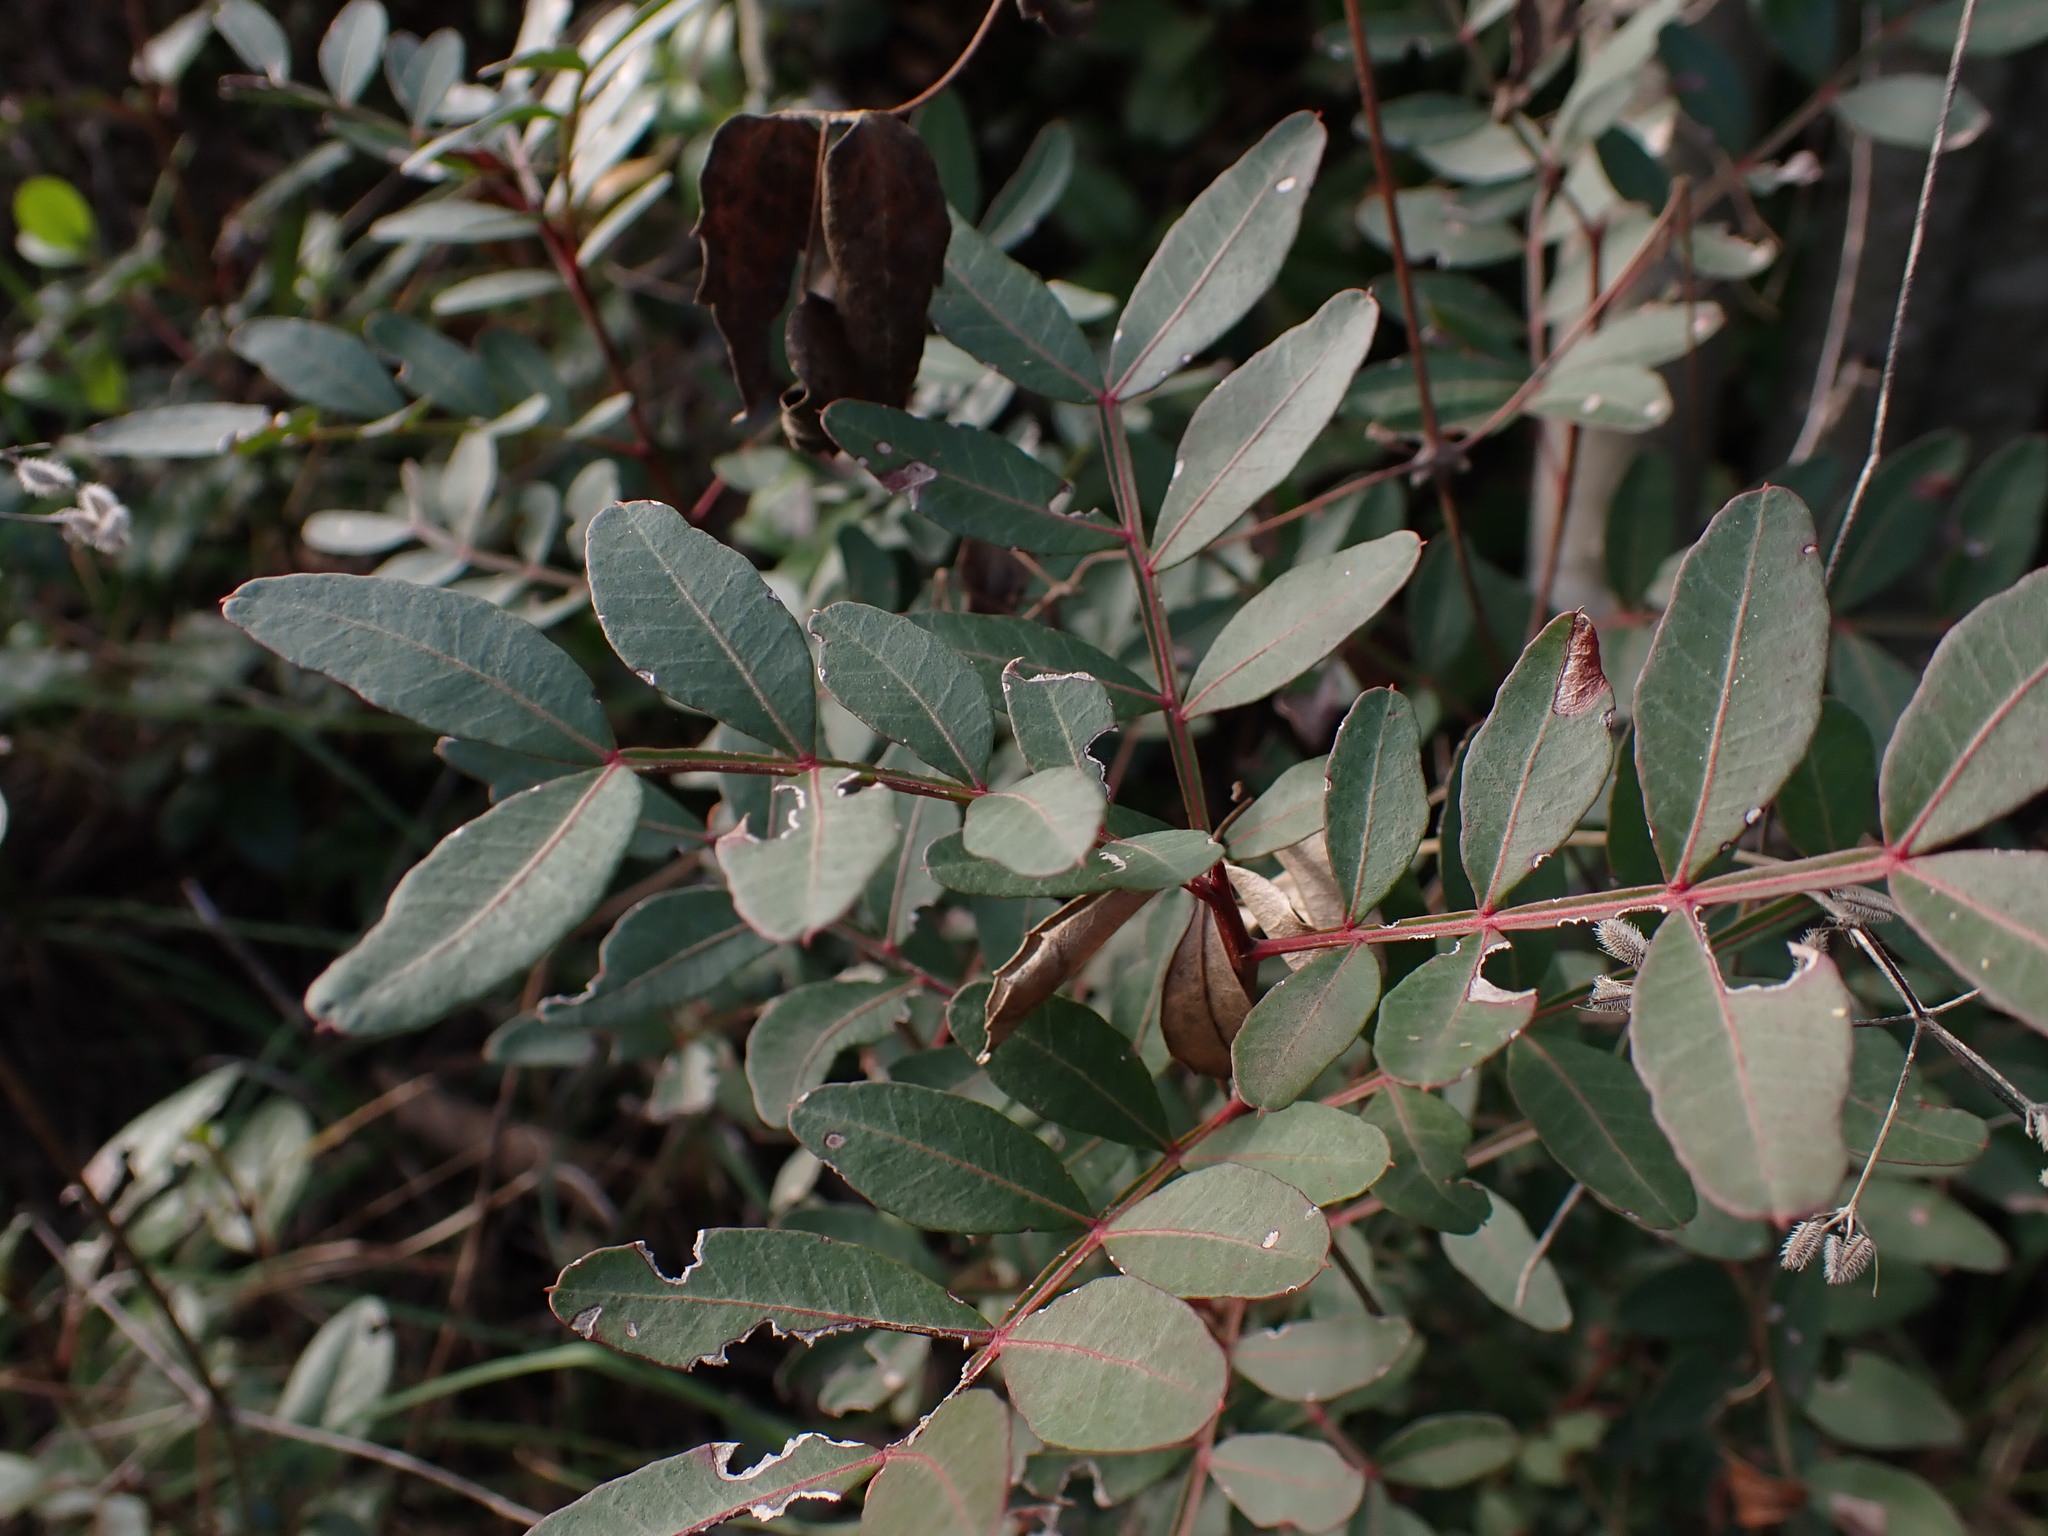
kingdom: Plantae
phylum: Tracheophyta
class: Magnoliopsida
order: Sapindales
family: Anacardiaceae
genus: Pistacia
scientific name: Pistacia lentiscus
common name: Lentisk
